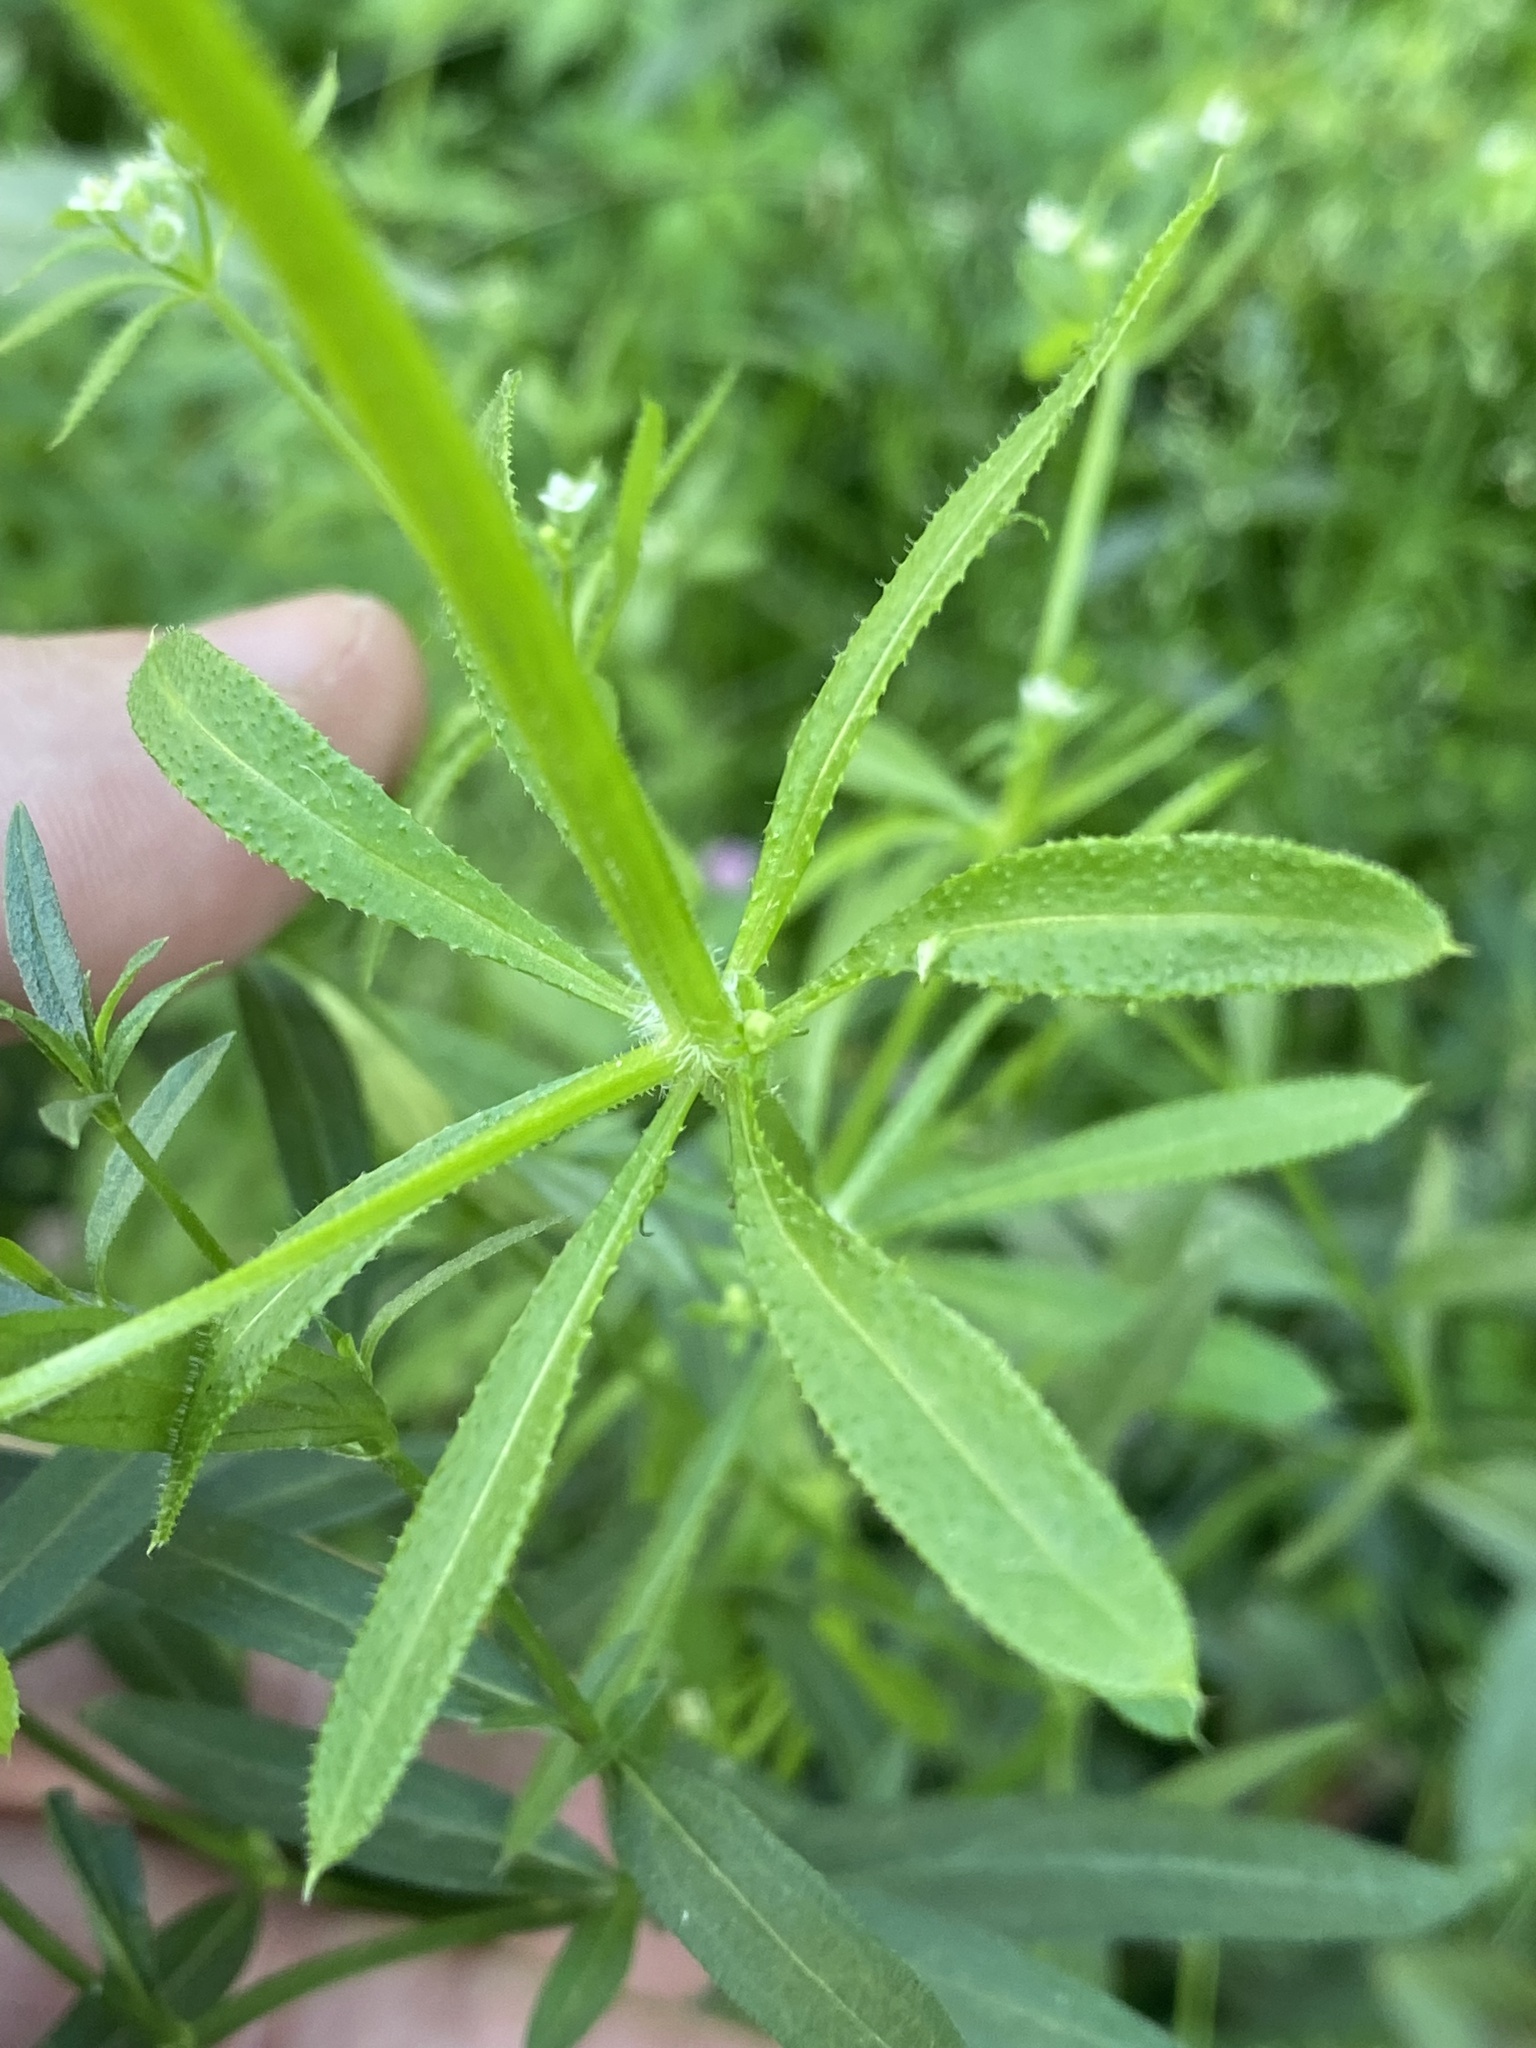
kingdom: Plantae
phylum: Tracheophyta
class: Magnoliopsida
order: Gentianales
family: Rubiaceae
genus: Galium
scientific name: Galium aparine
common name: Cleavers
